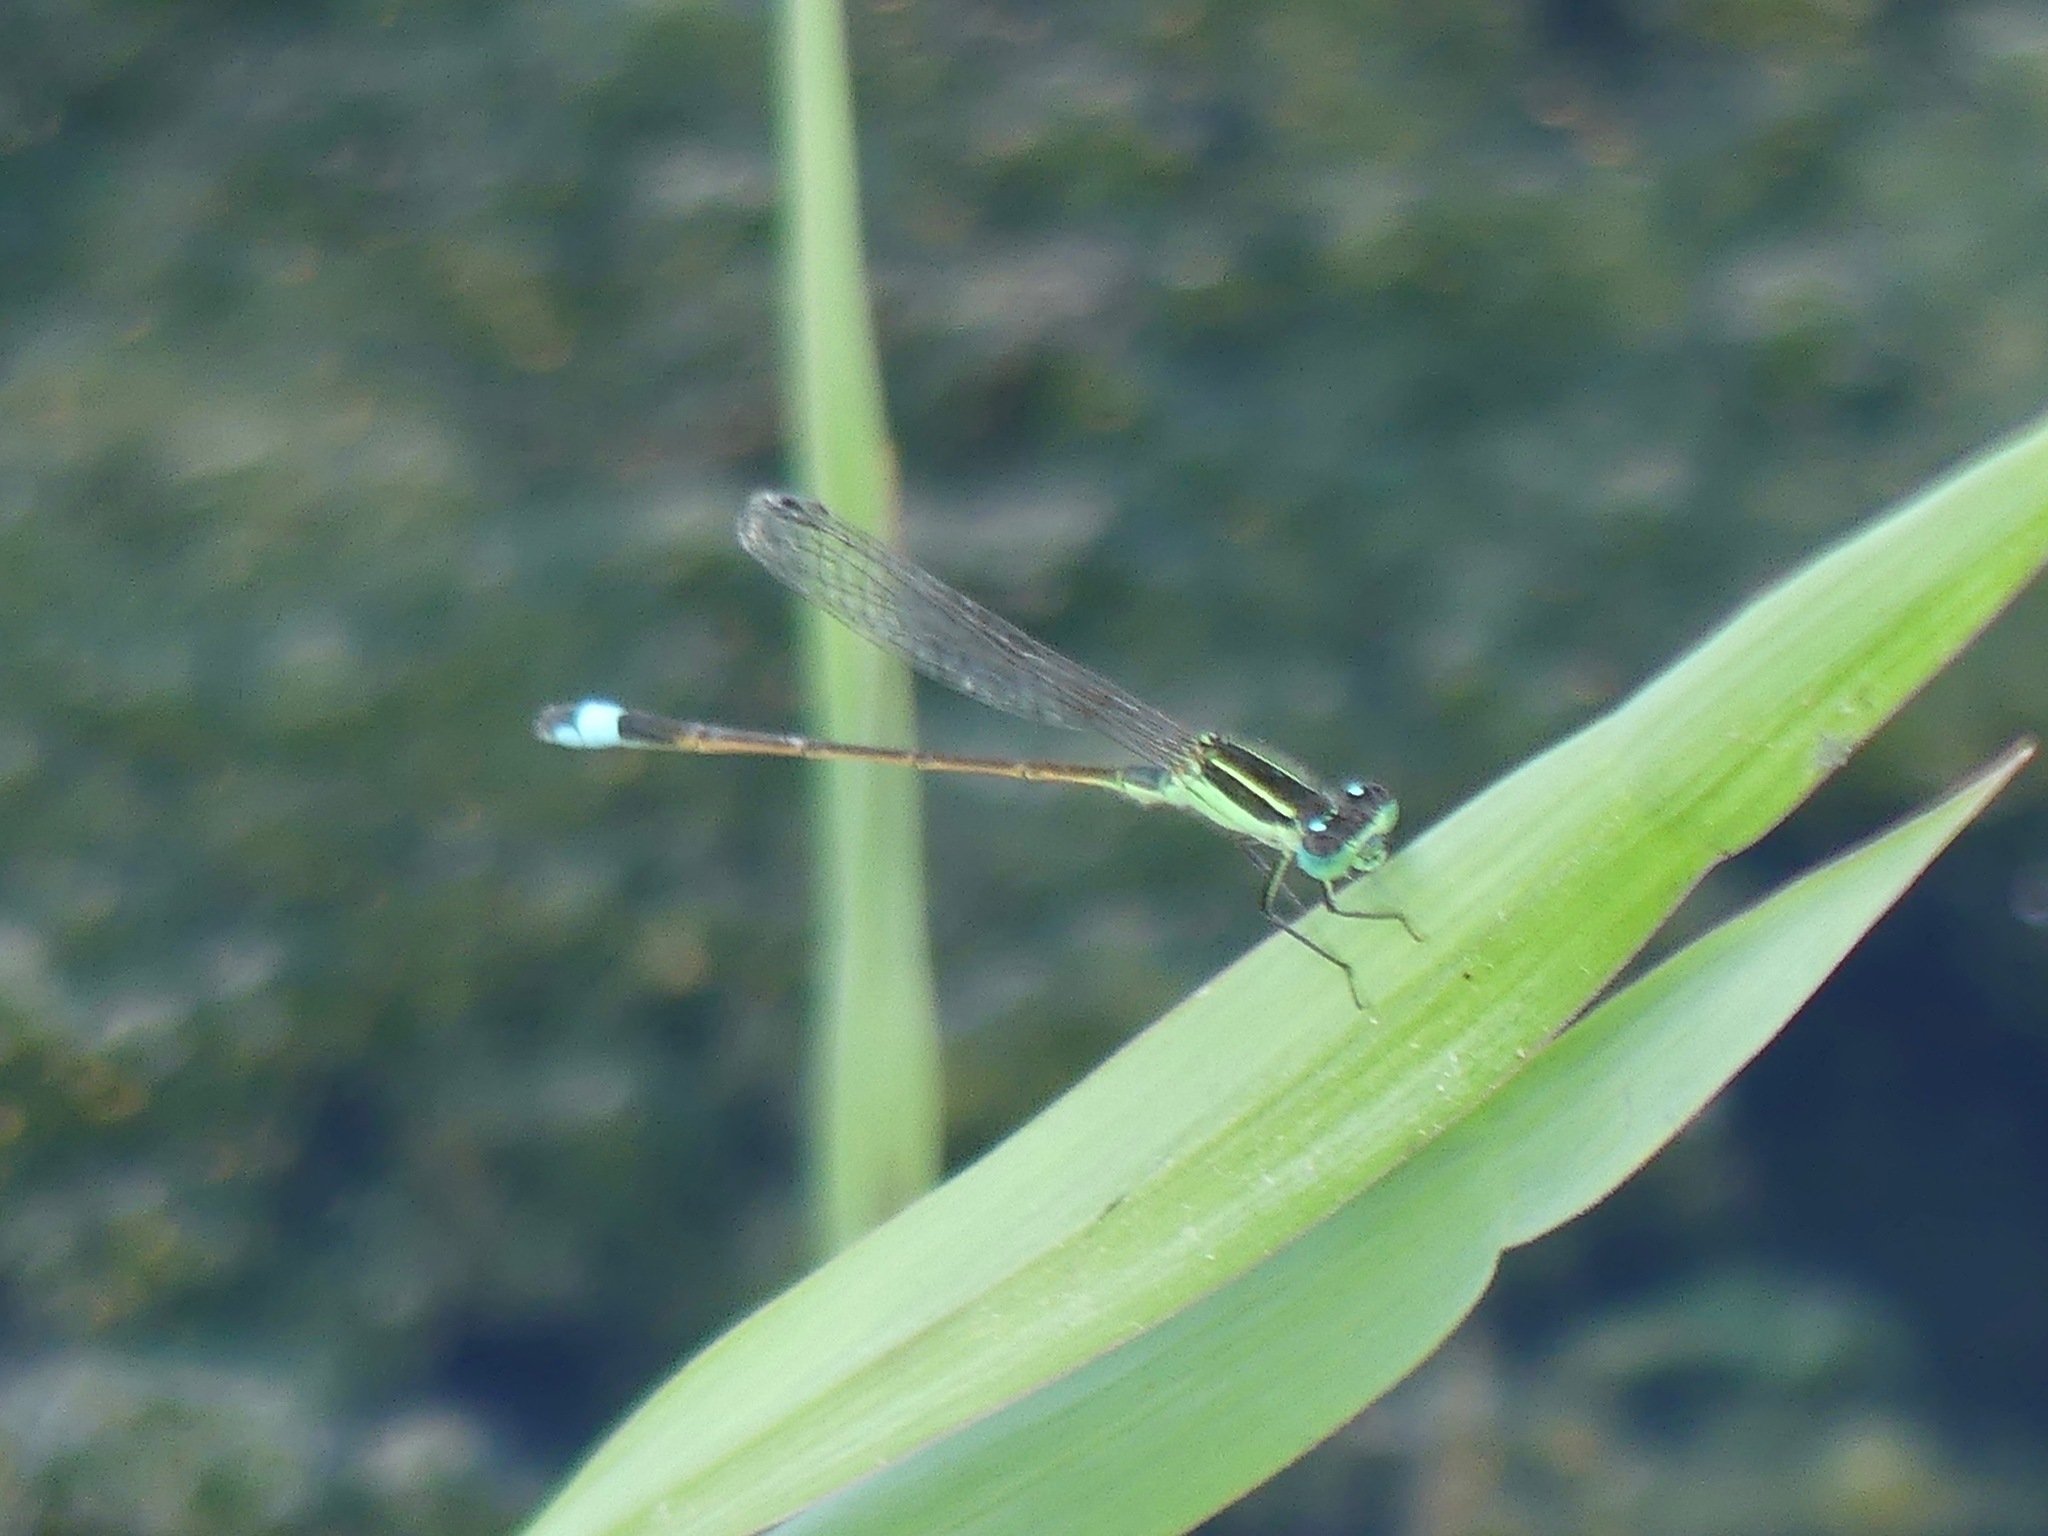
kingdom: Animalia
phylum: Arthropoda
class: Insecta
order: Odonata
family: Coenagrionidae
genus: Ischnura
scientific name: Ischnura ramburii
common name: Rambur's forktail
